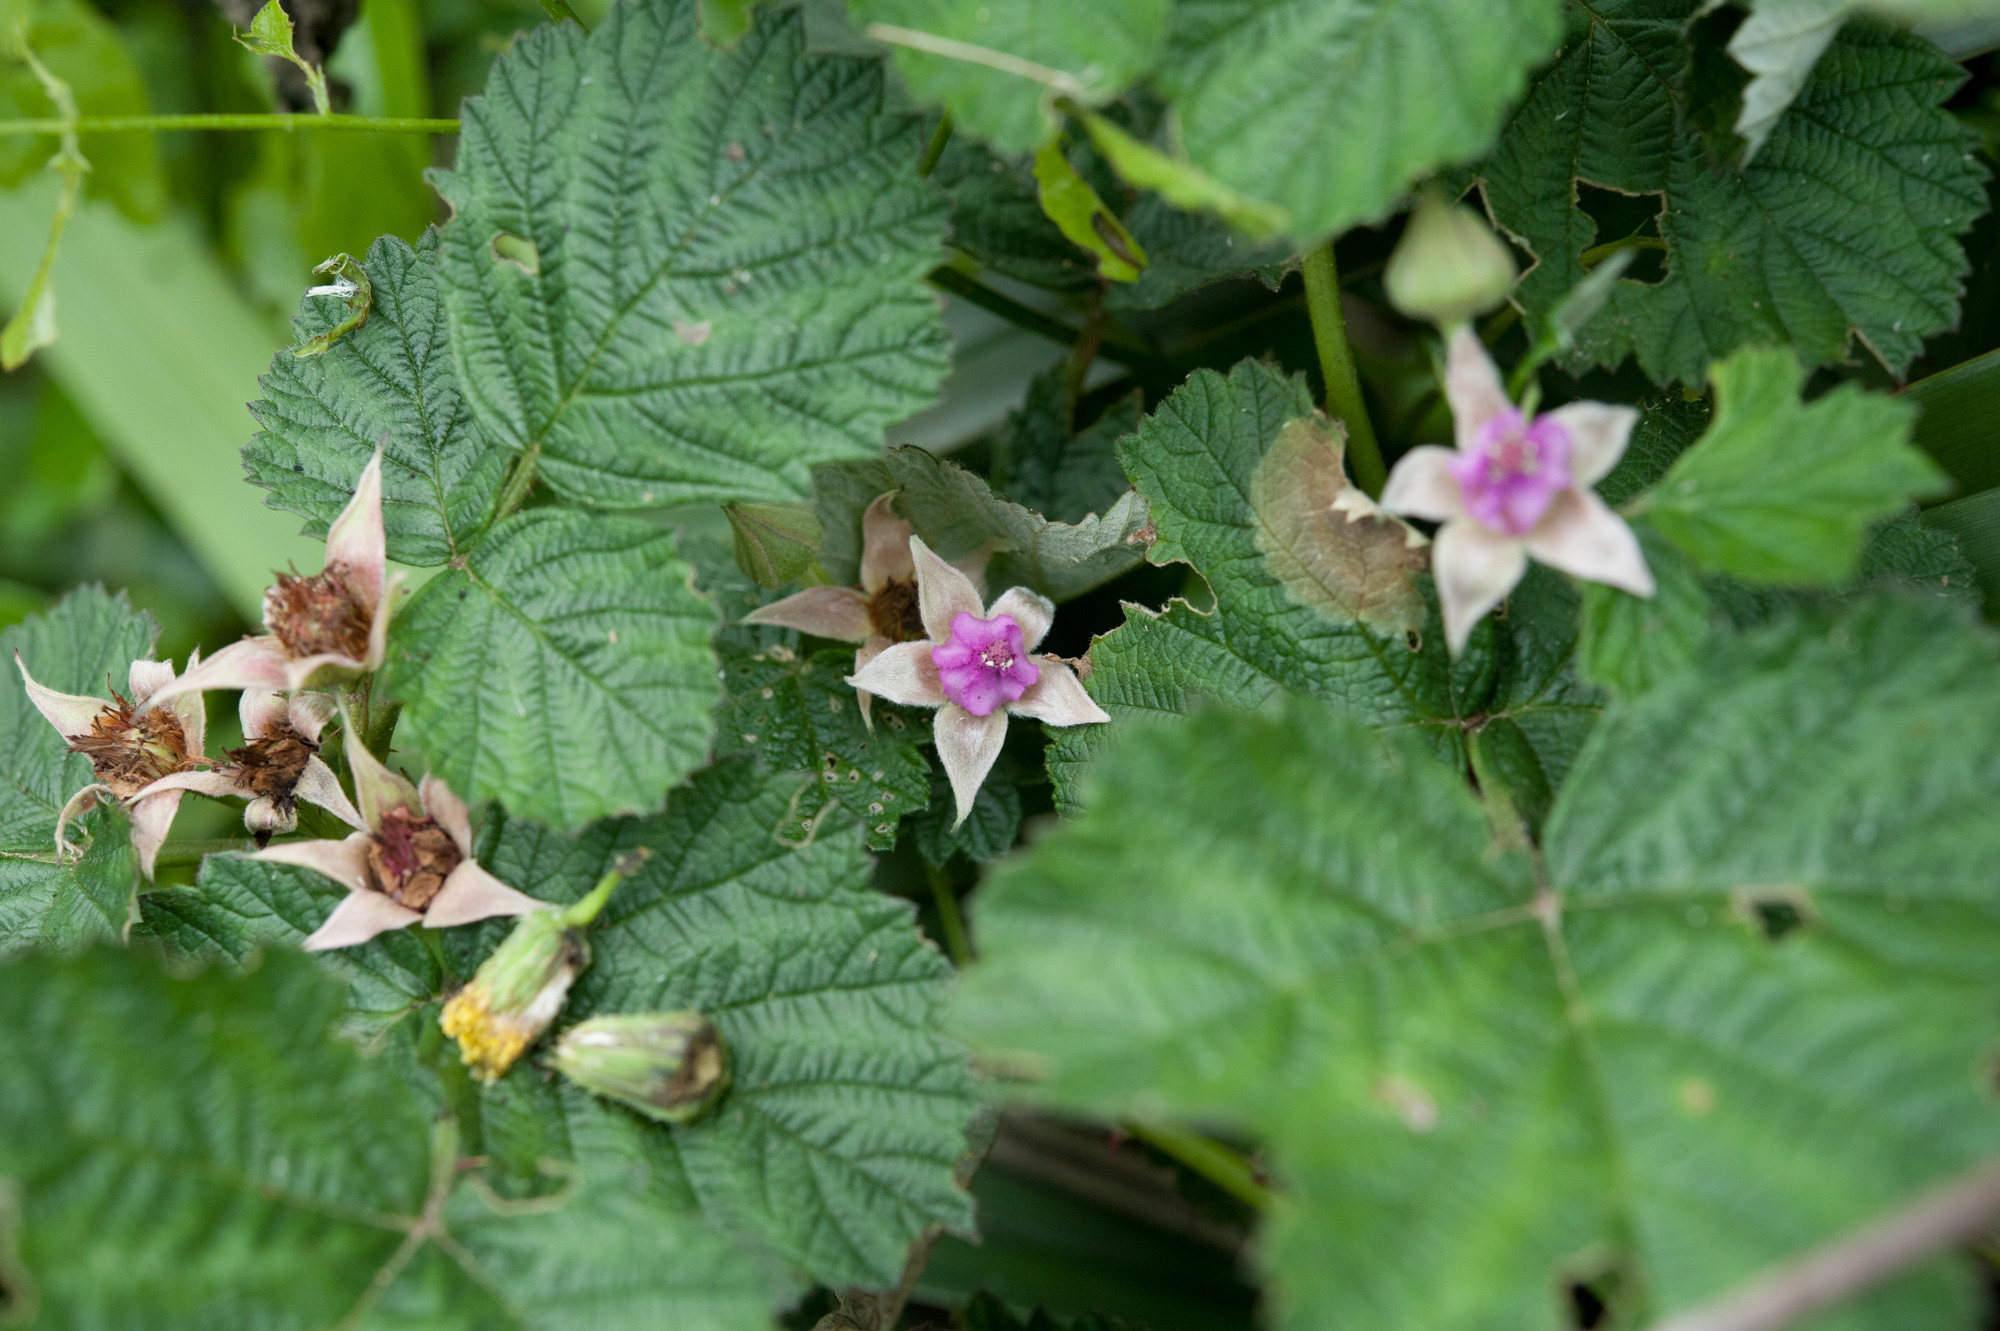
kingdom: Plantae
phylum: Tracheophyta
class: Magnoliopsida
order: Rosales
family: Rosaceae
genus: Rubus
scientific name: Rubus parvifolius
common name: Threeleaf blackberry
